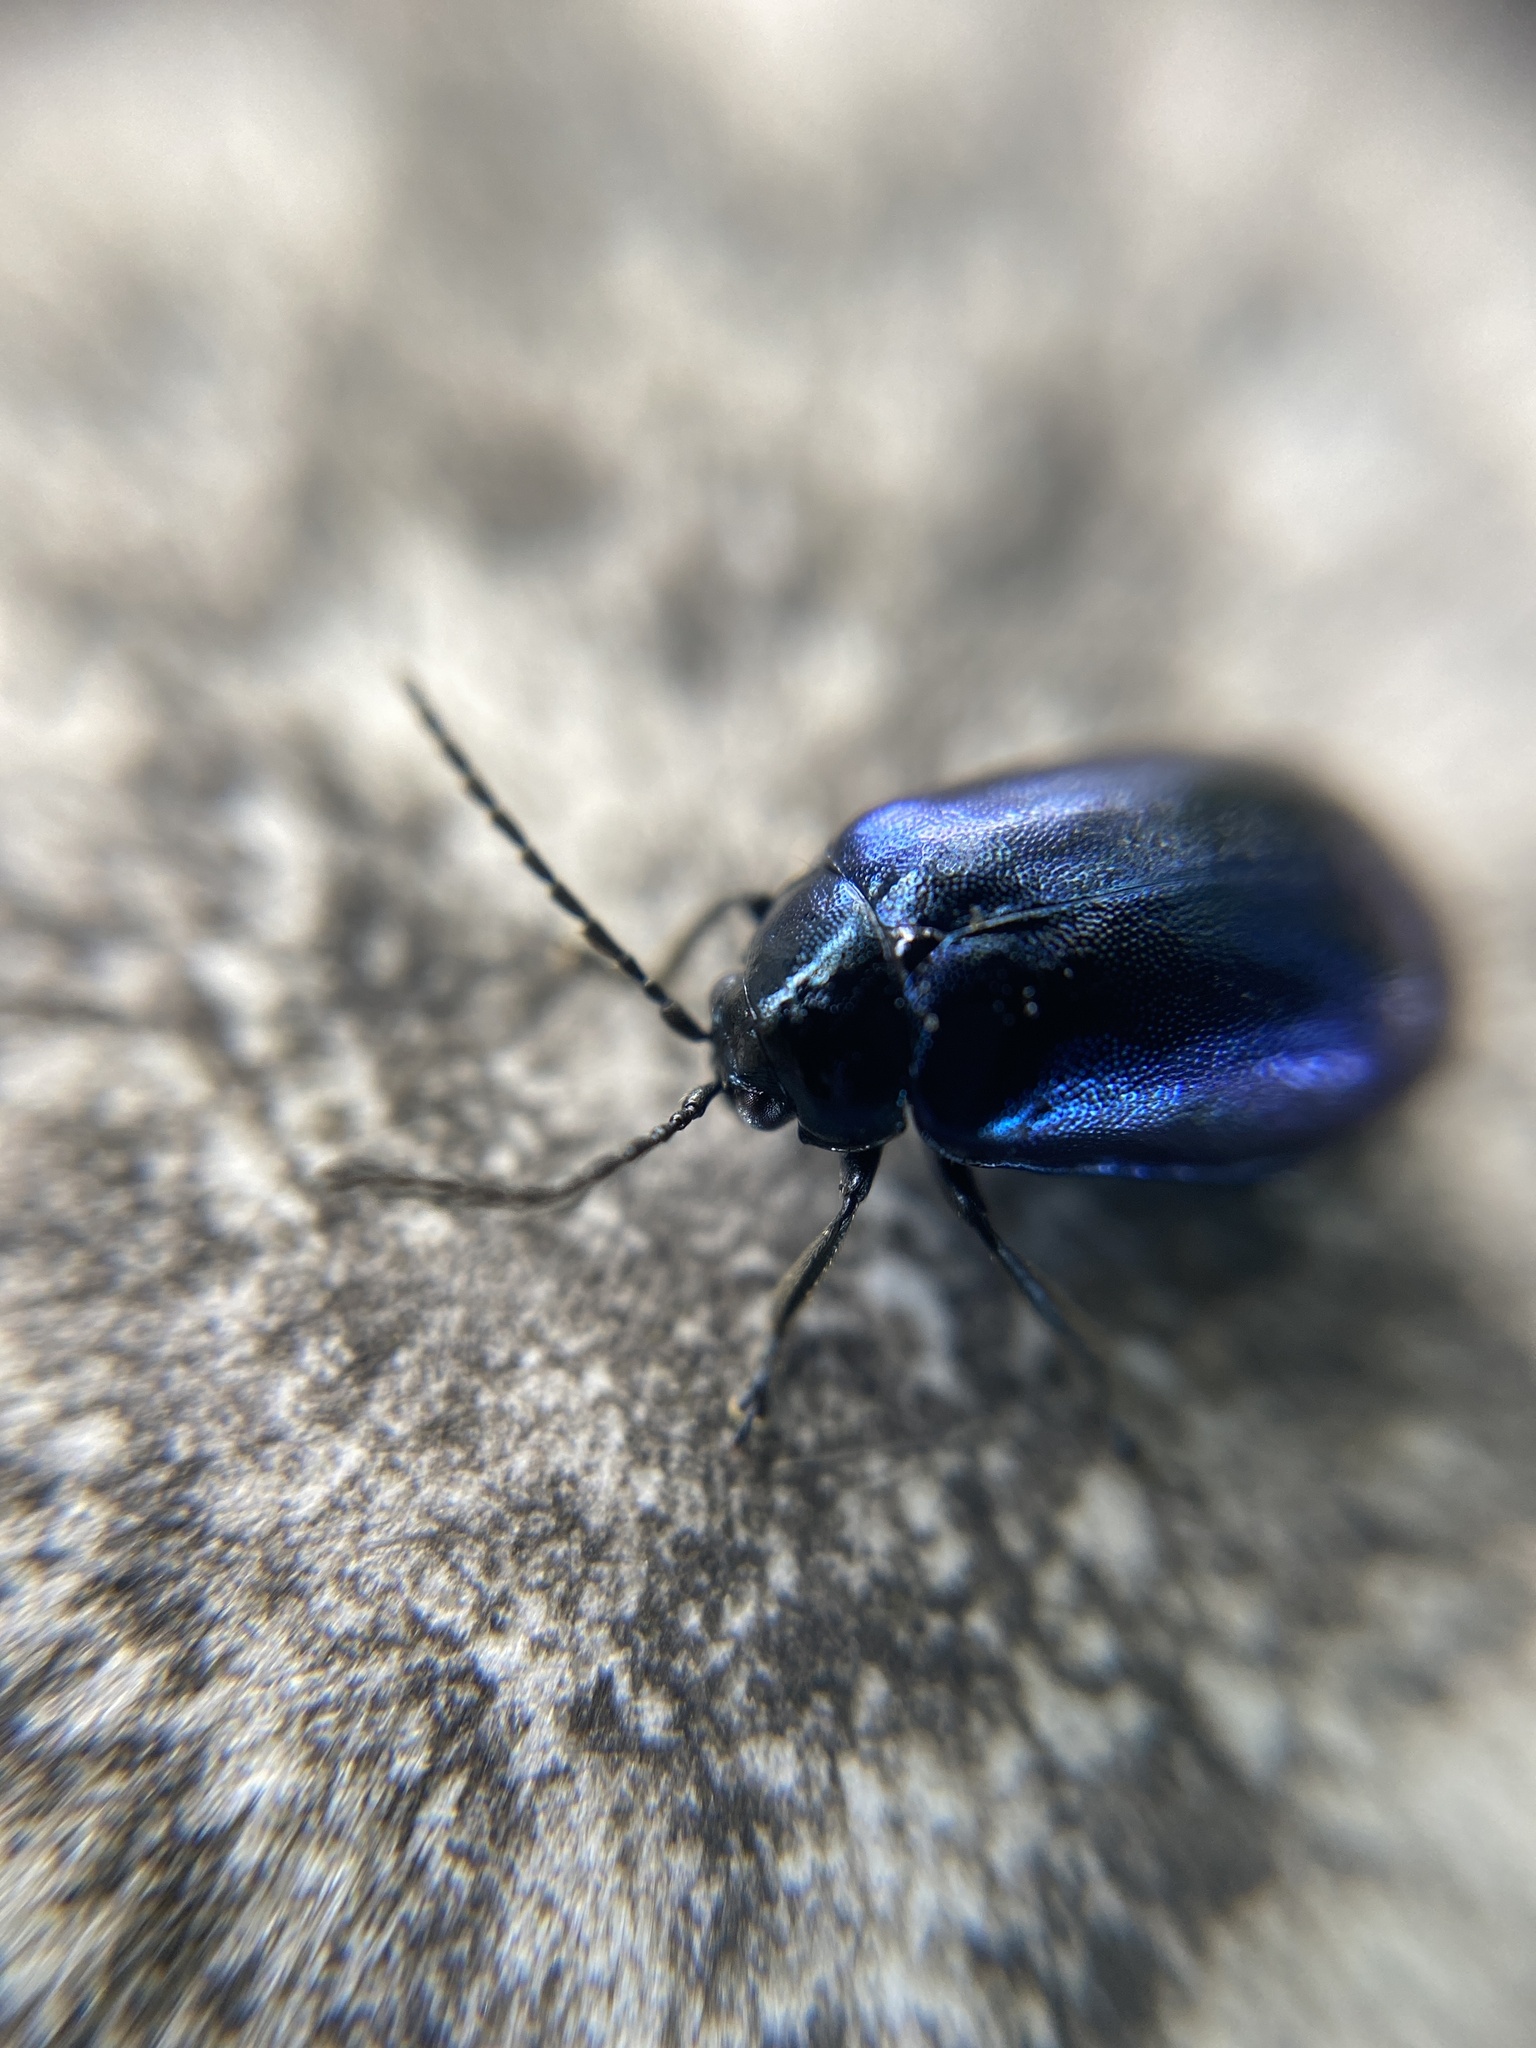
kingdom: Animalia
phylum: Arthropoda
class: Insecta
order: Coleoptera
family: Chrysomelidae
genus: Agelastica
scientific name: Agelastica alni
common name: Alder leaf beetle
